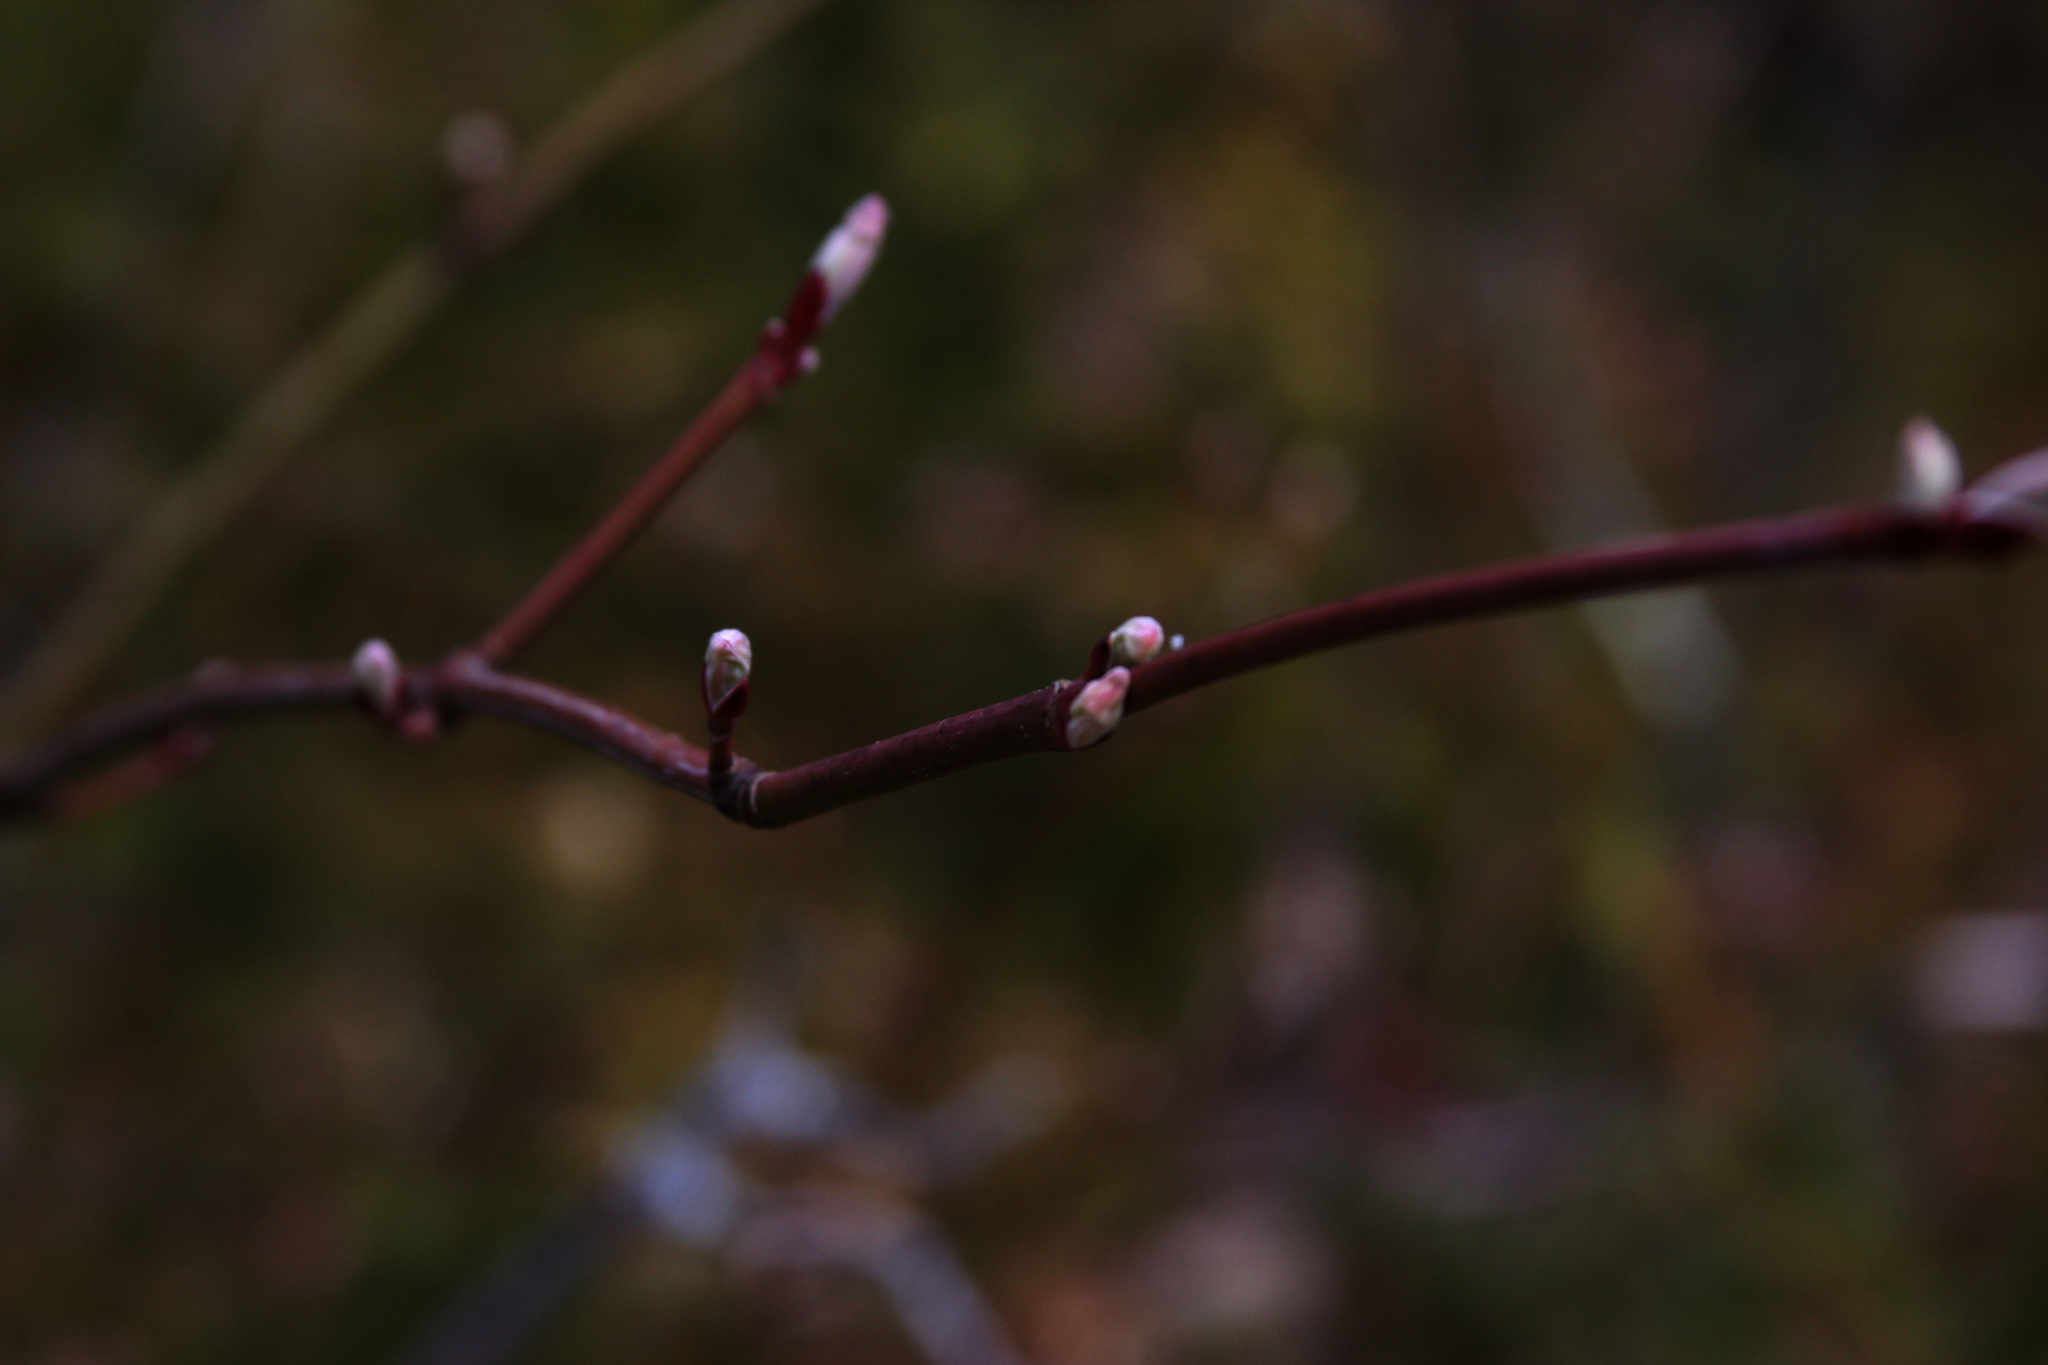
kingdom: Plantae
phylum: Tracheophyta
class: Magnoliopsida
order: Sapindales
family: Sapindaceae
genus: Acer
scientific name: Acer pensylvanicum
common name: Moosewood
